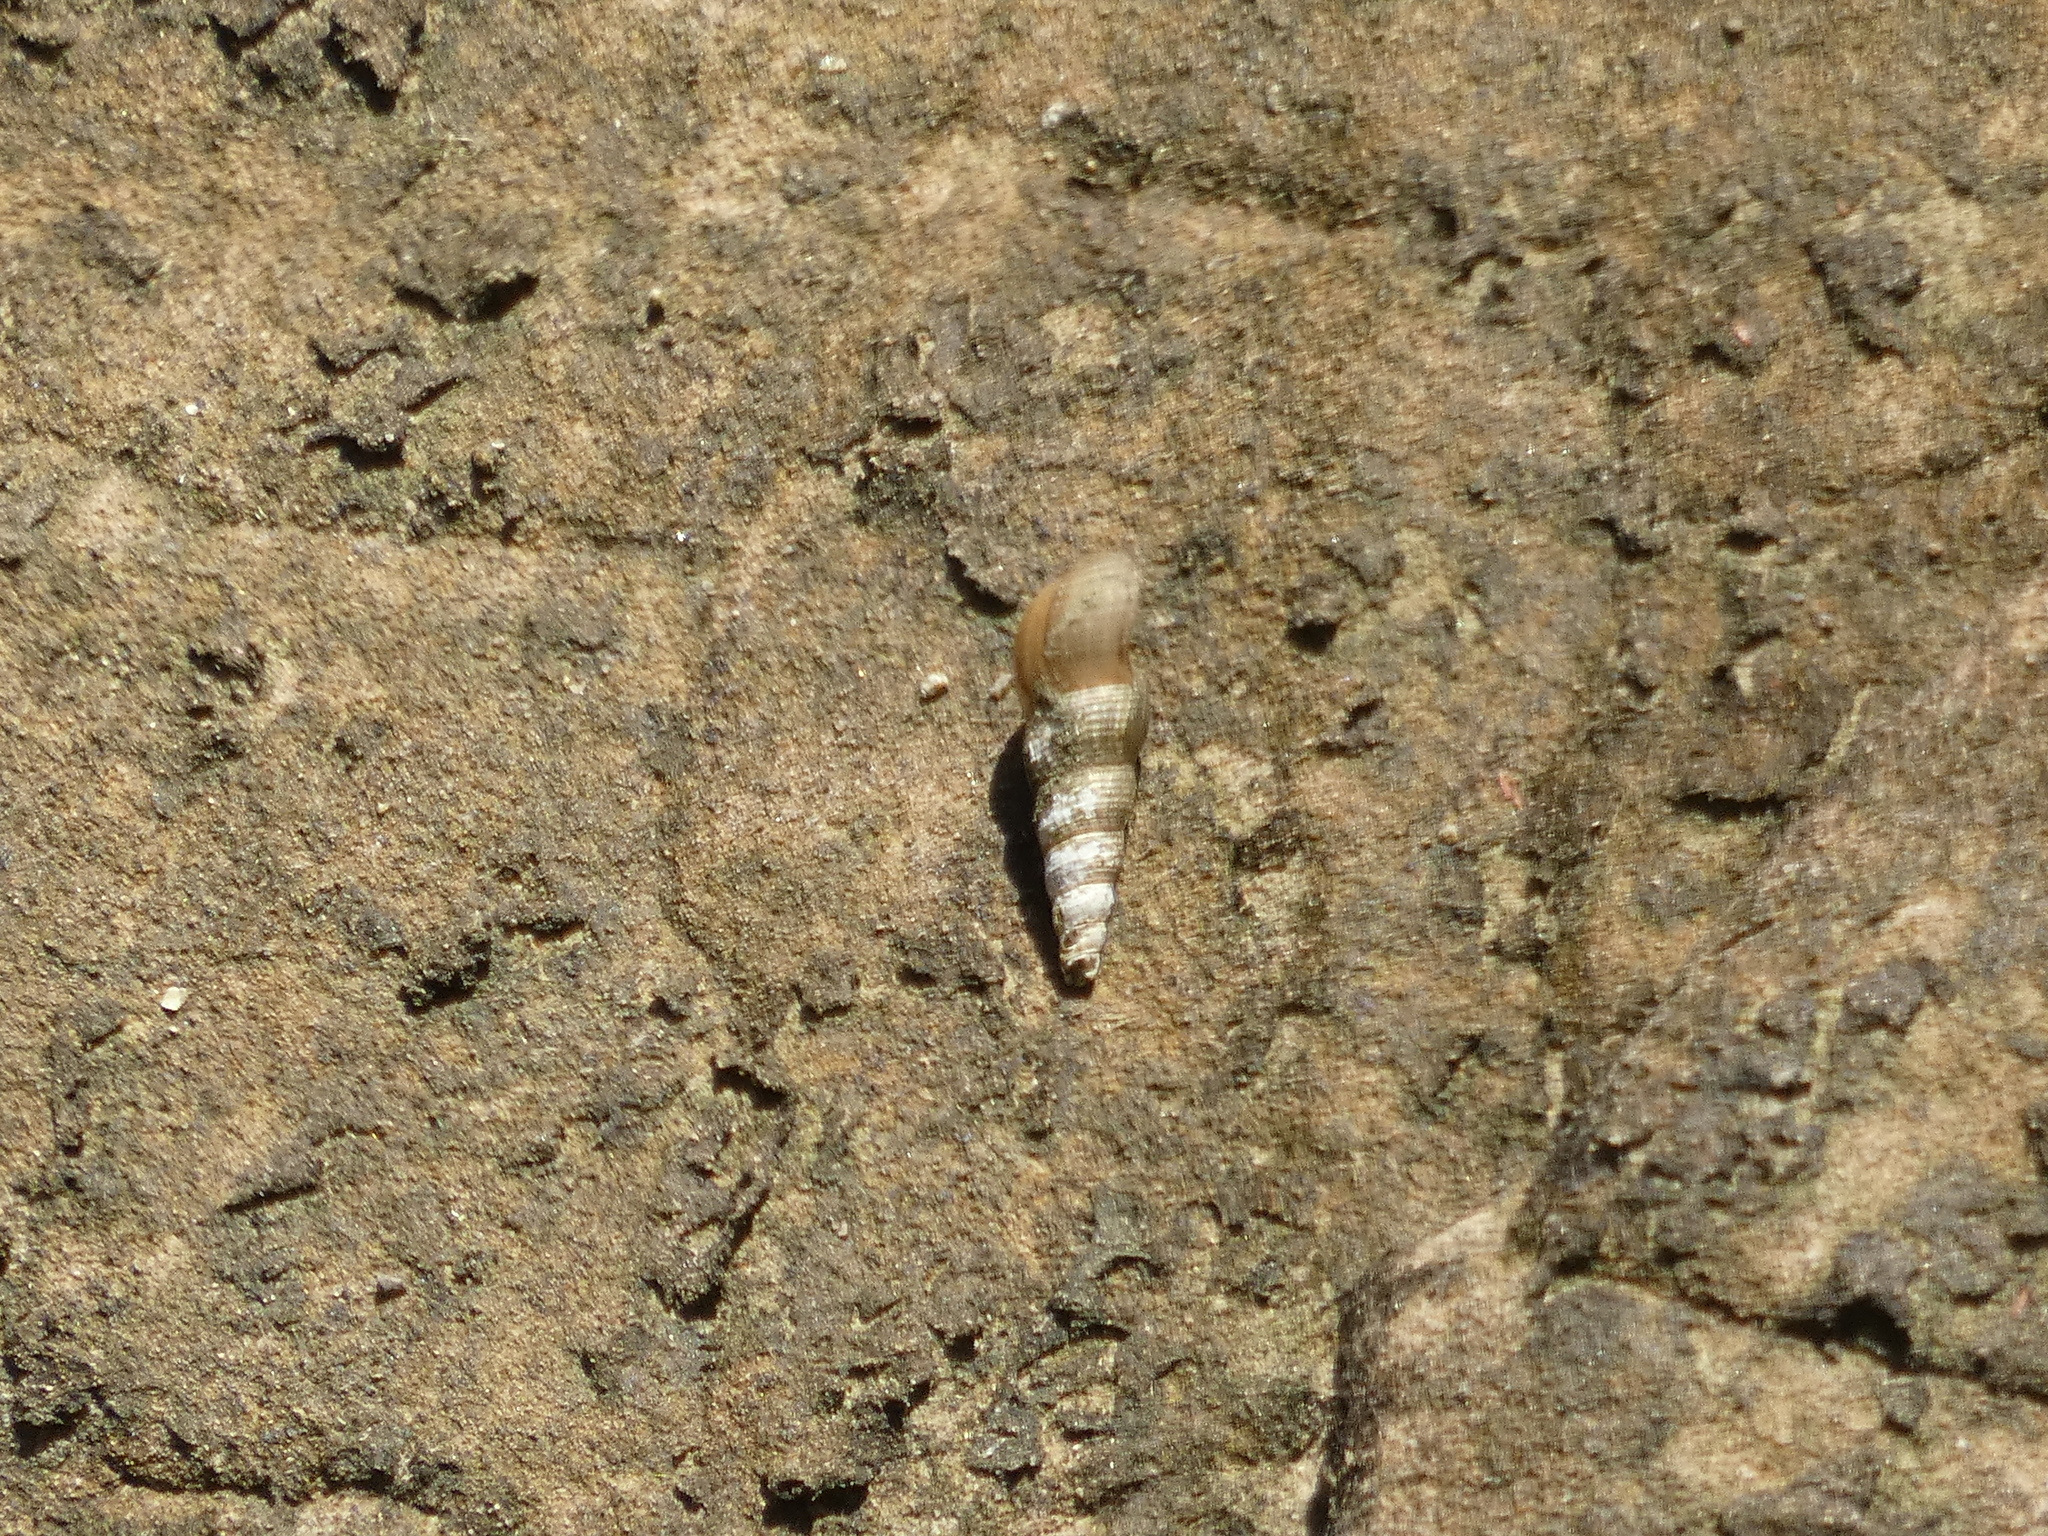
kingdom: Animalia
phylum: Mollusca
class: Gastropoda
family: Thiaridae
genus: Melanoides
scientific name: Melanoides tuberculata
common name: Red-rim melania
